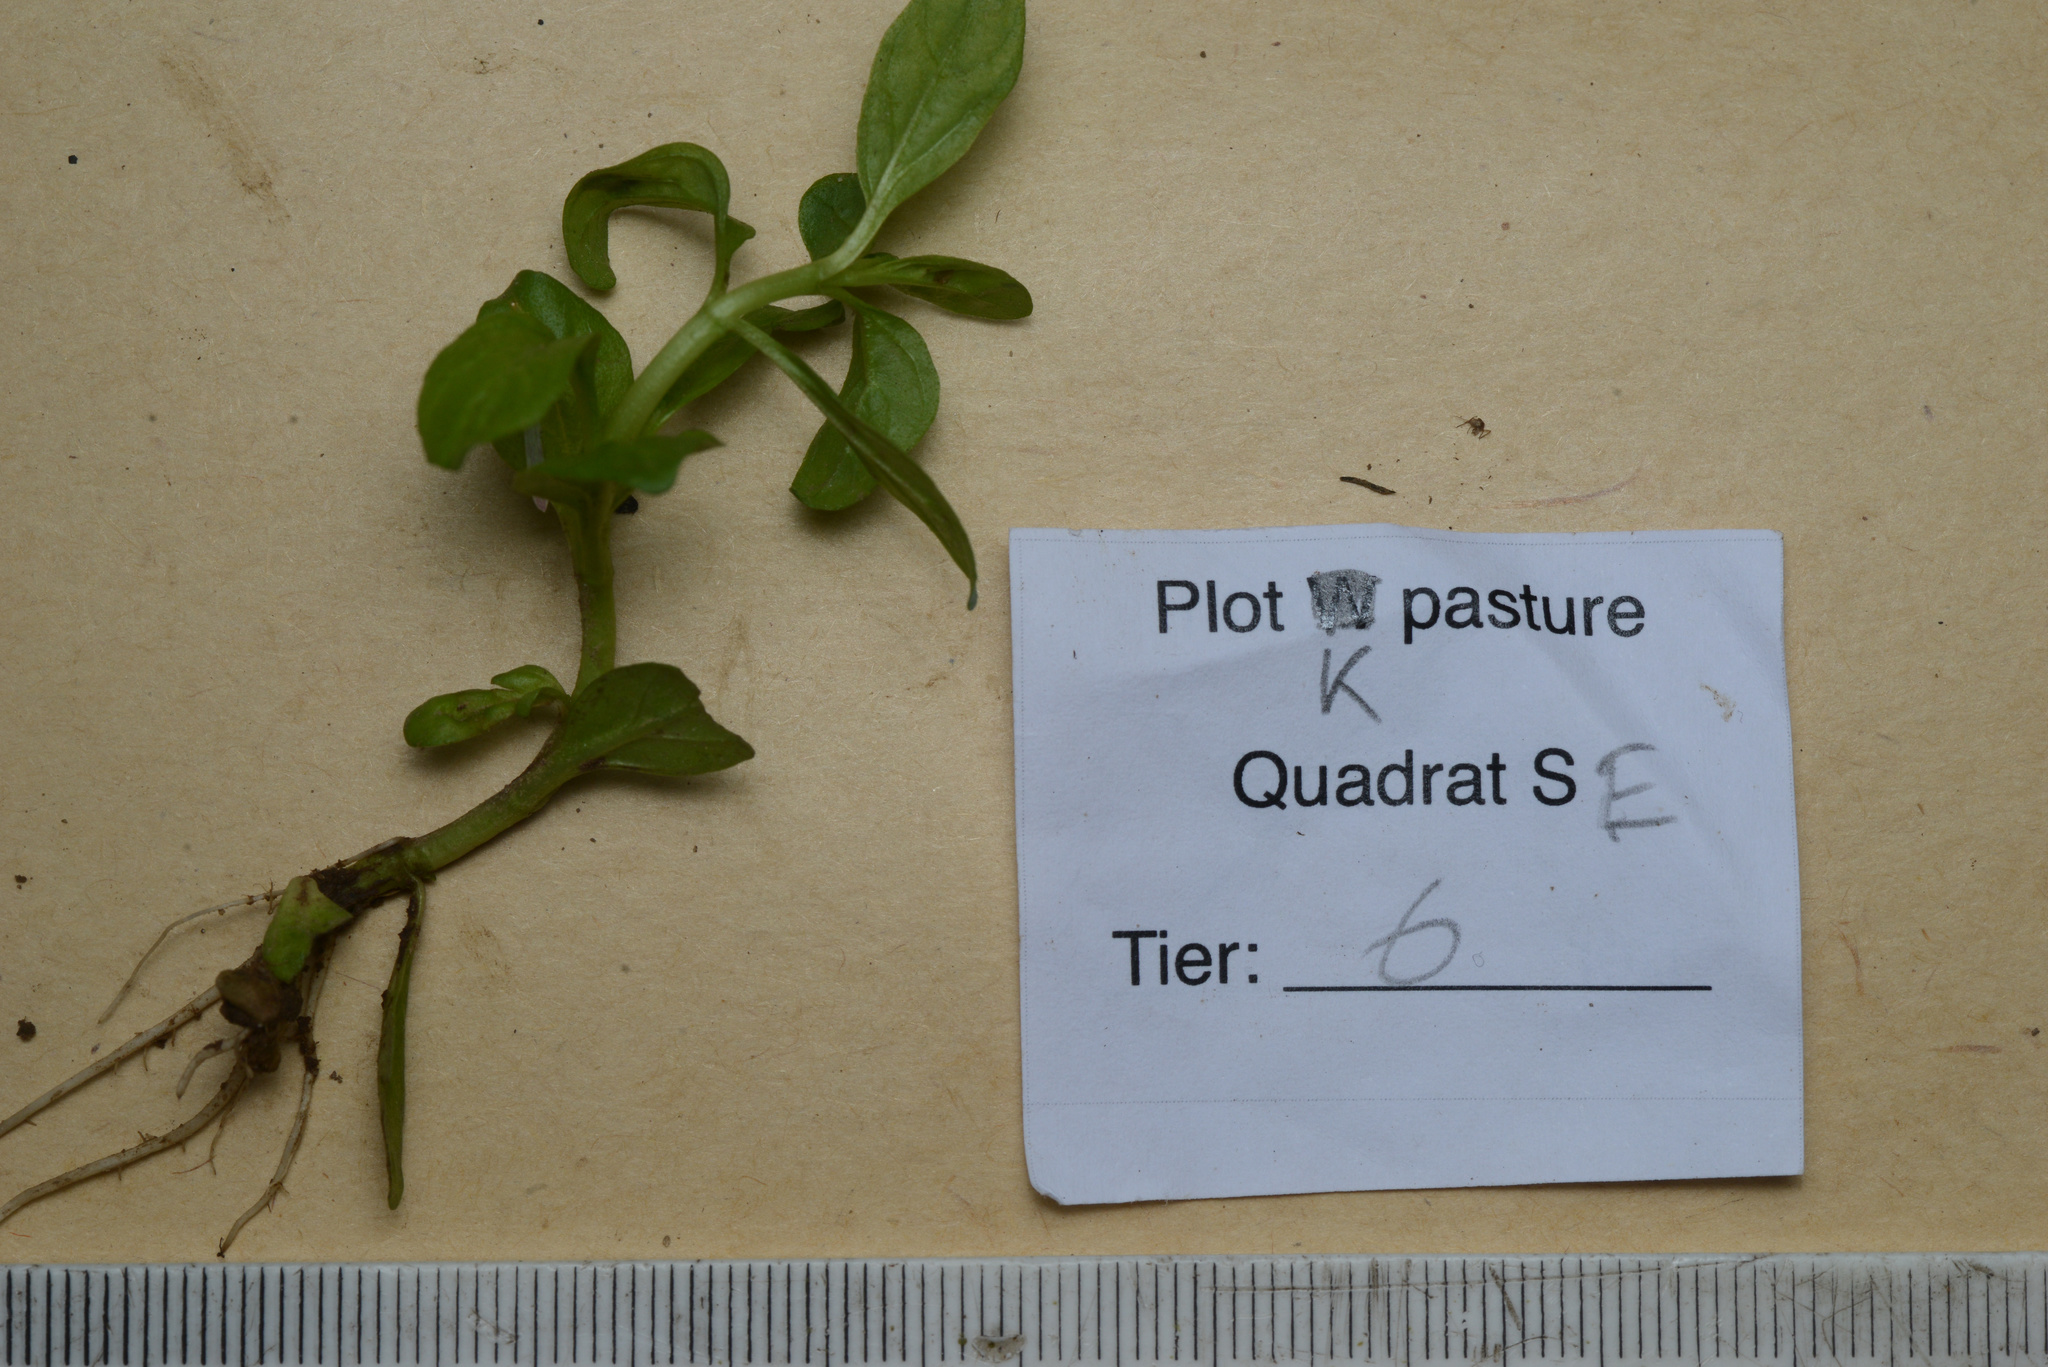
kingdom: Plantae
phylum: Tracheophyta
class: Magnoliopsida
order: Lamiales
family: Lamiaceae
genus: Prunella
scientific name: Prunella vulgaris
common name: Heal-all
